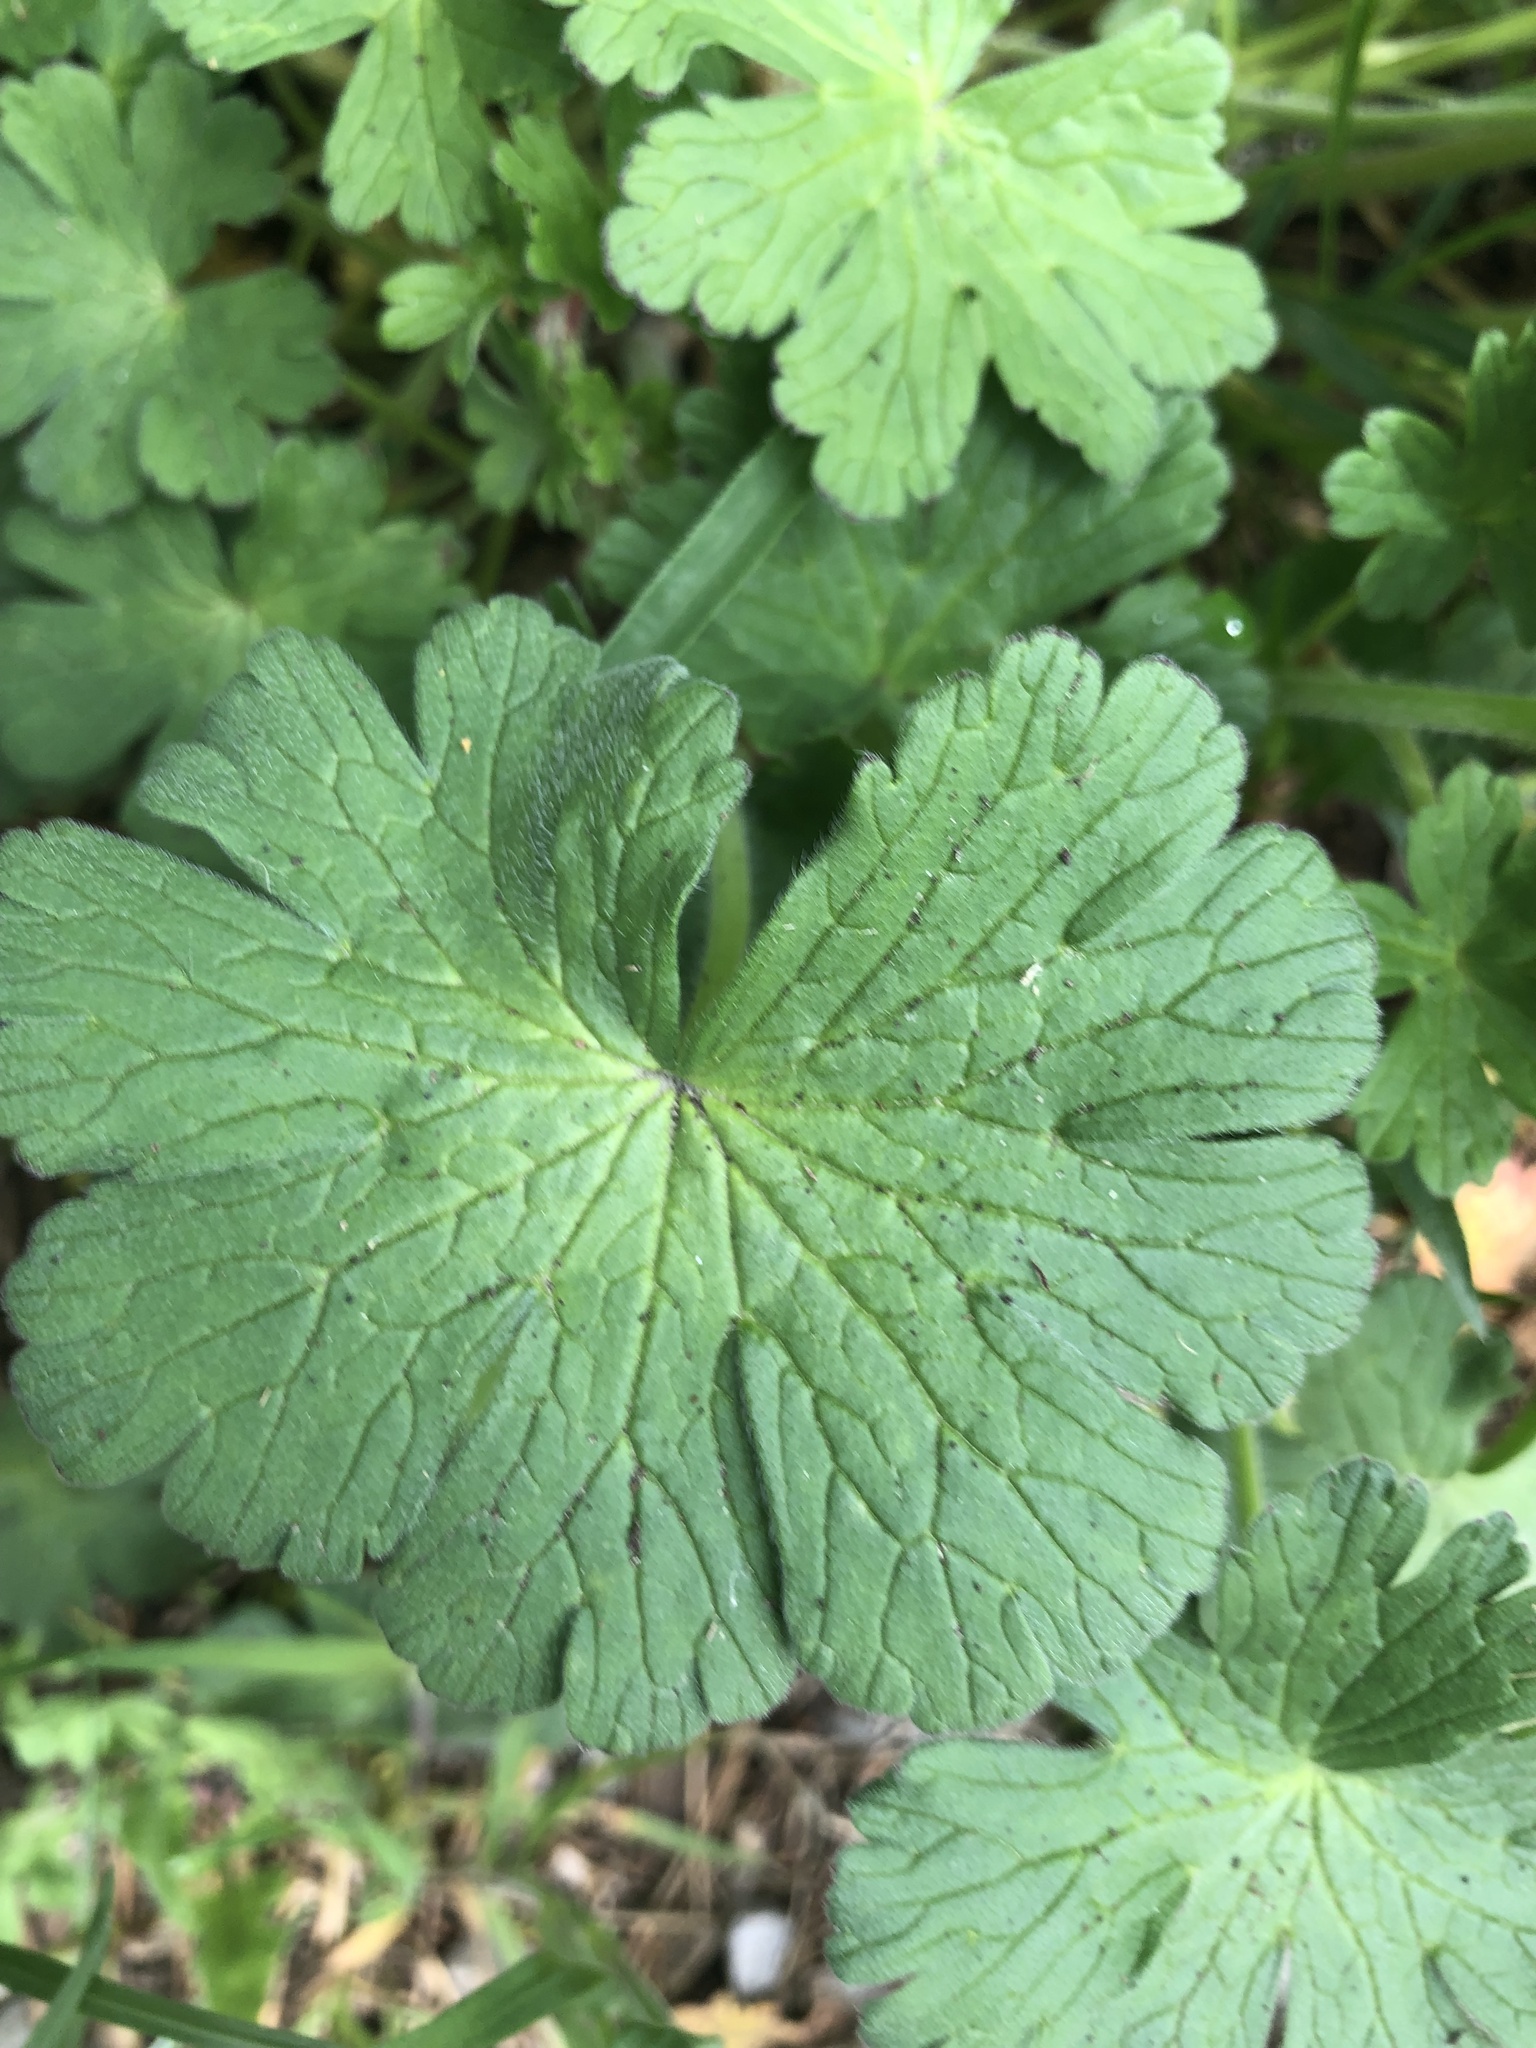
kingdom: Plantae
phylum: Tracheophyta
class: Magnoliopsida
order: Geraniales
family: Geraniaceae
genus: Geranium
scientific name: Geranium pyrenaicum
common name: Hedgerow crane's-bill
